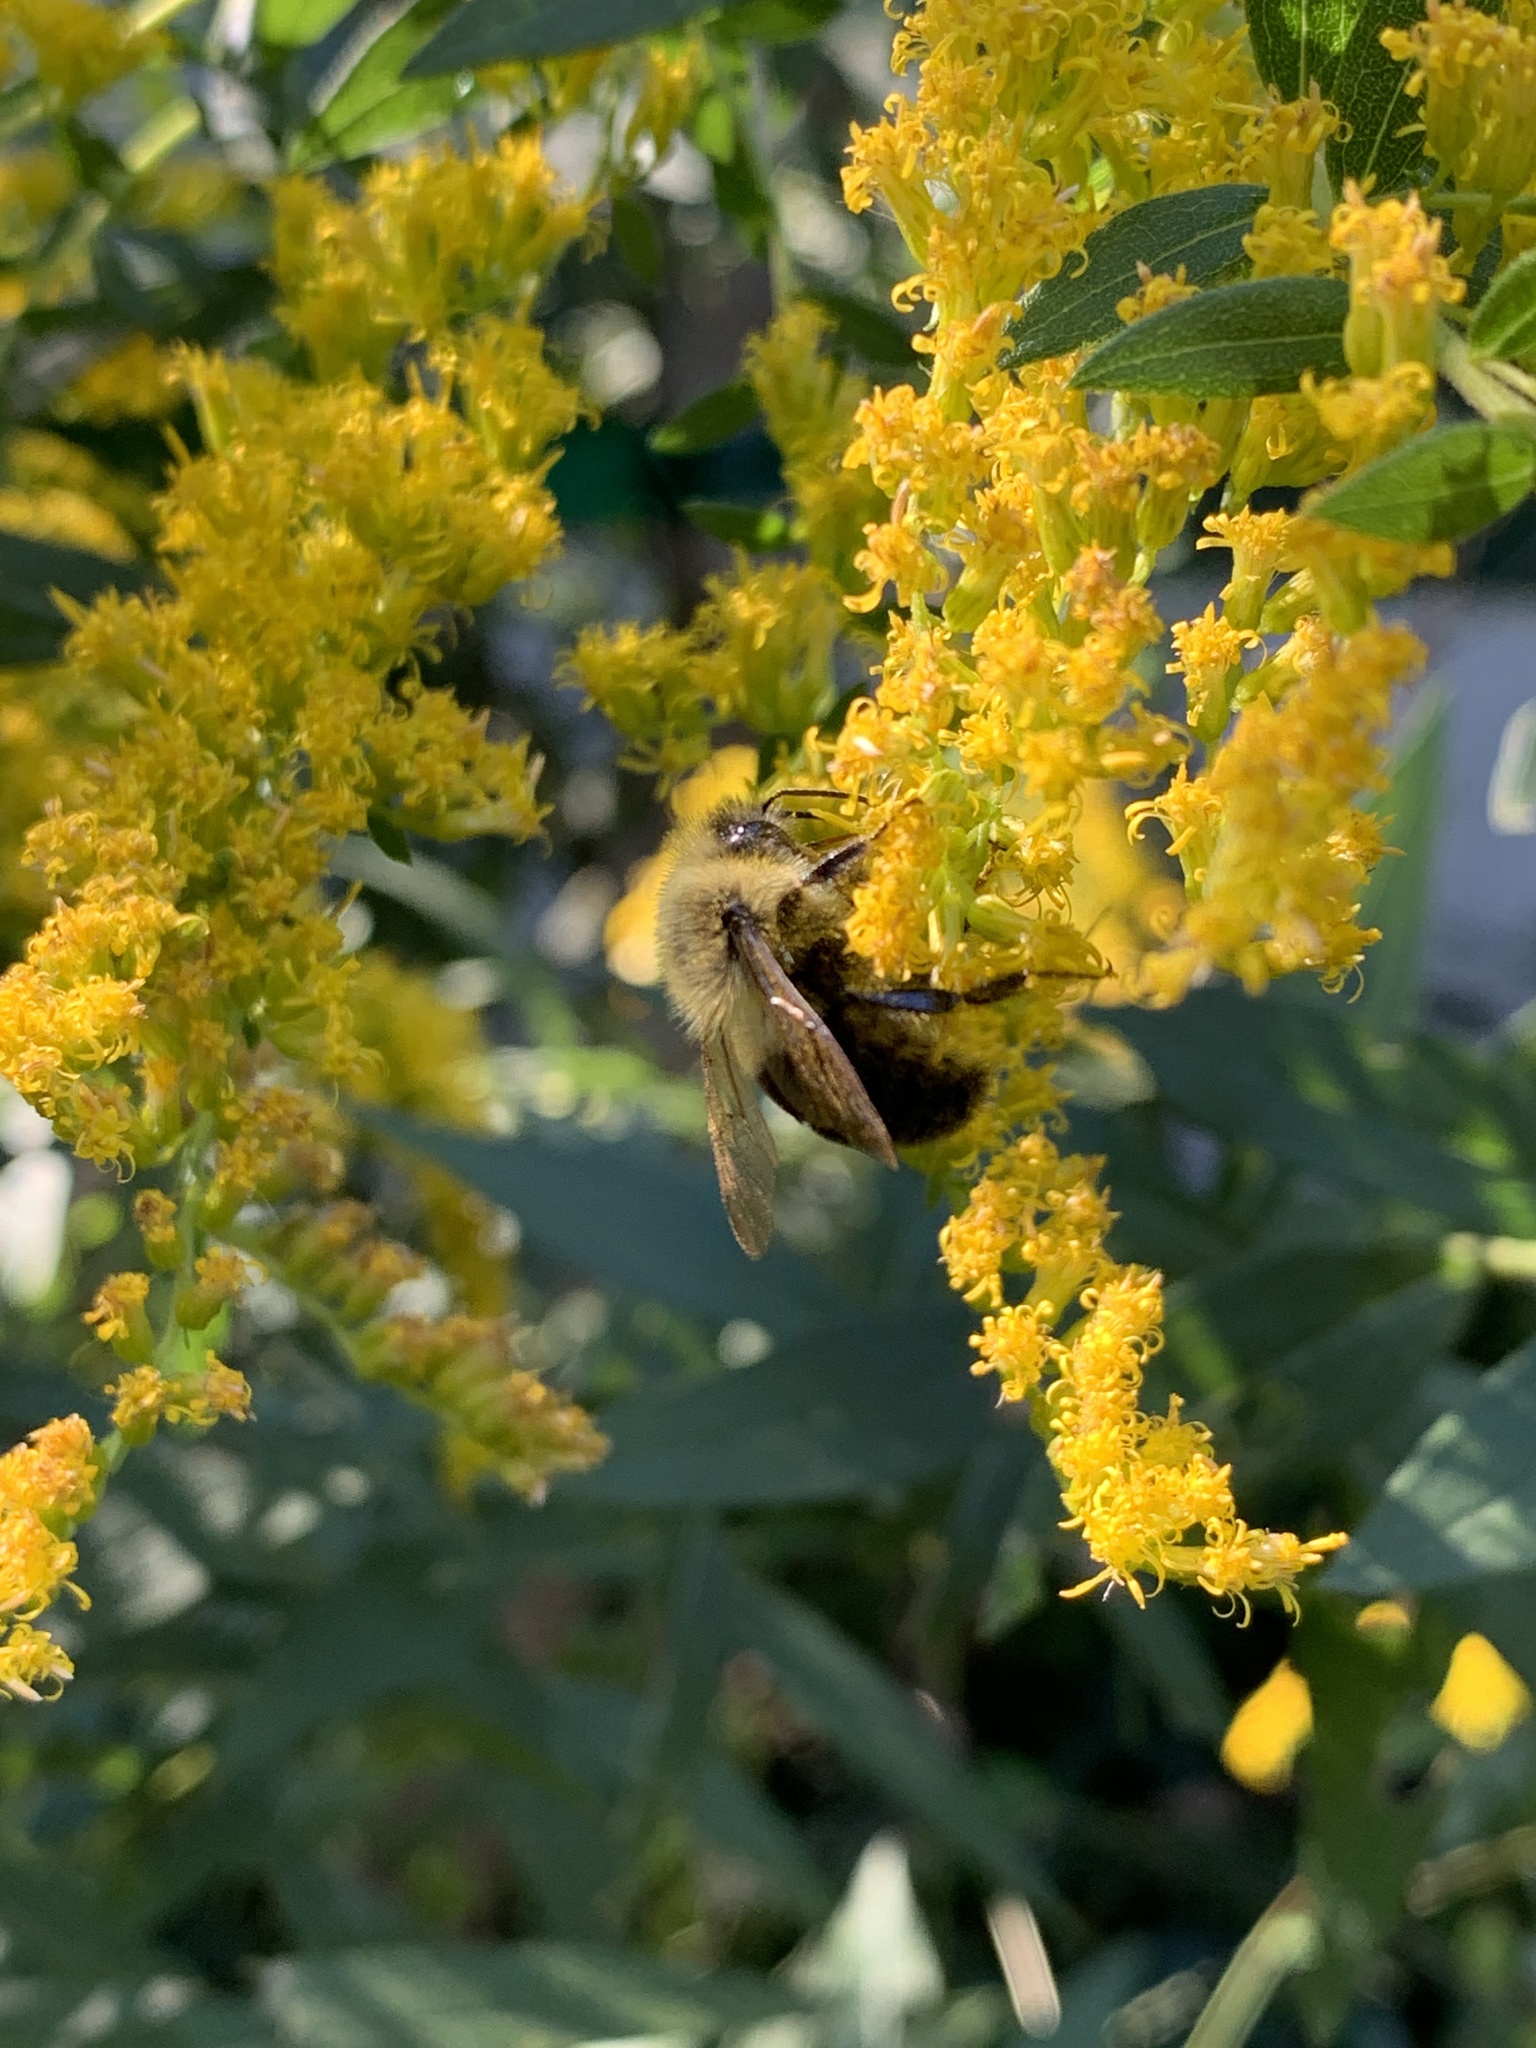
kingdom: Animalia
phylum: Arthropoda
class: Insecta
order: Hymenoptera
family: Apidae
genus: Bombus
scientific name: Bombus impatiens
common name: Common eastern bumble bee
